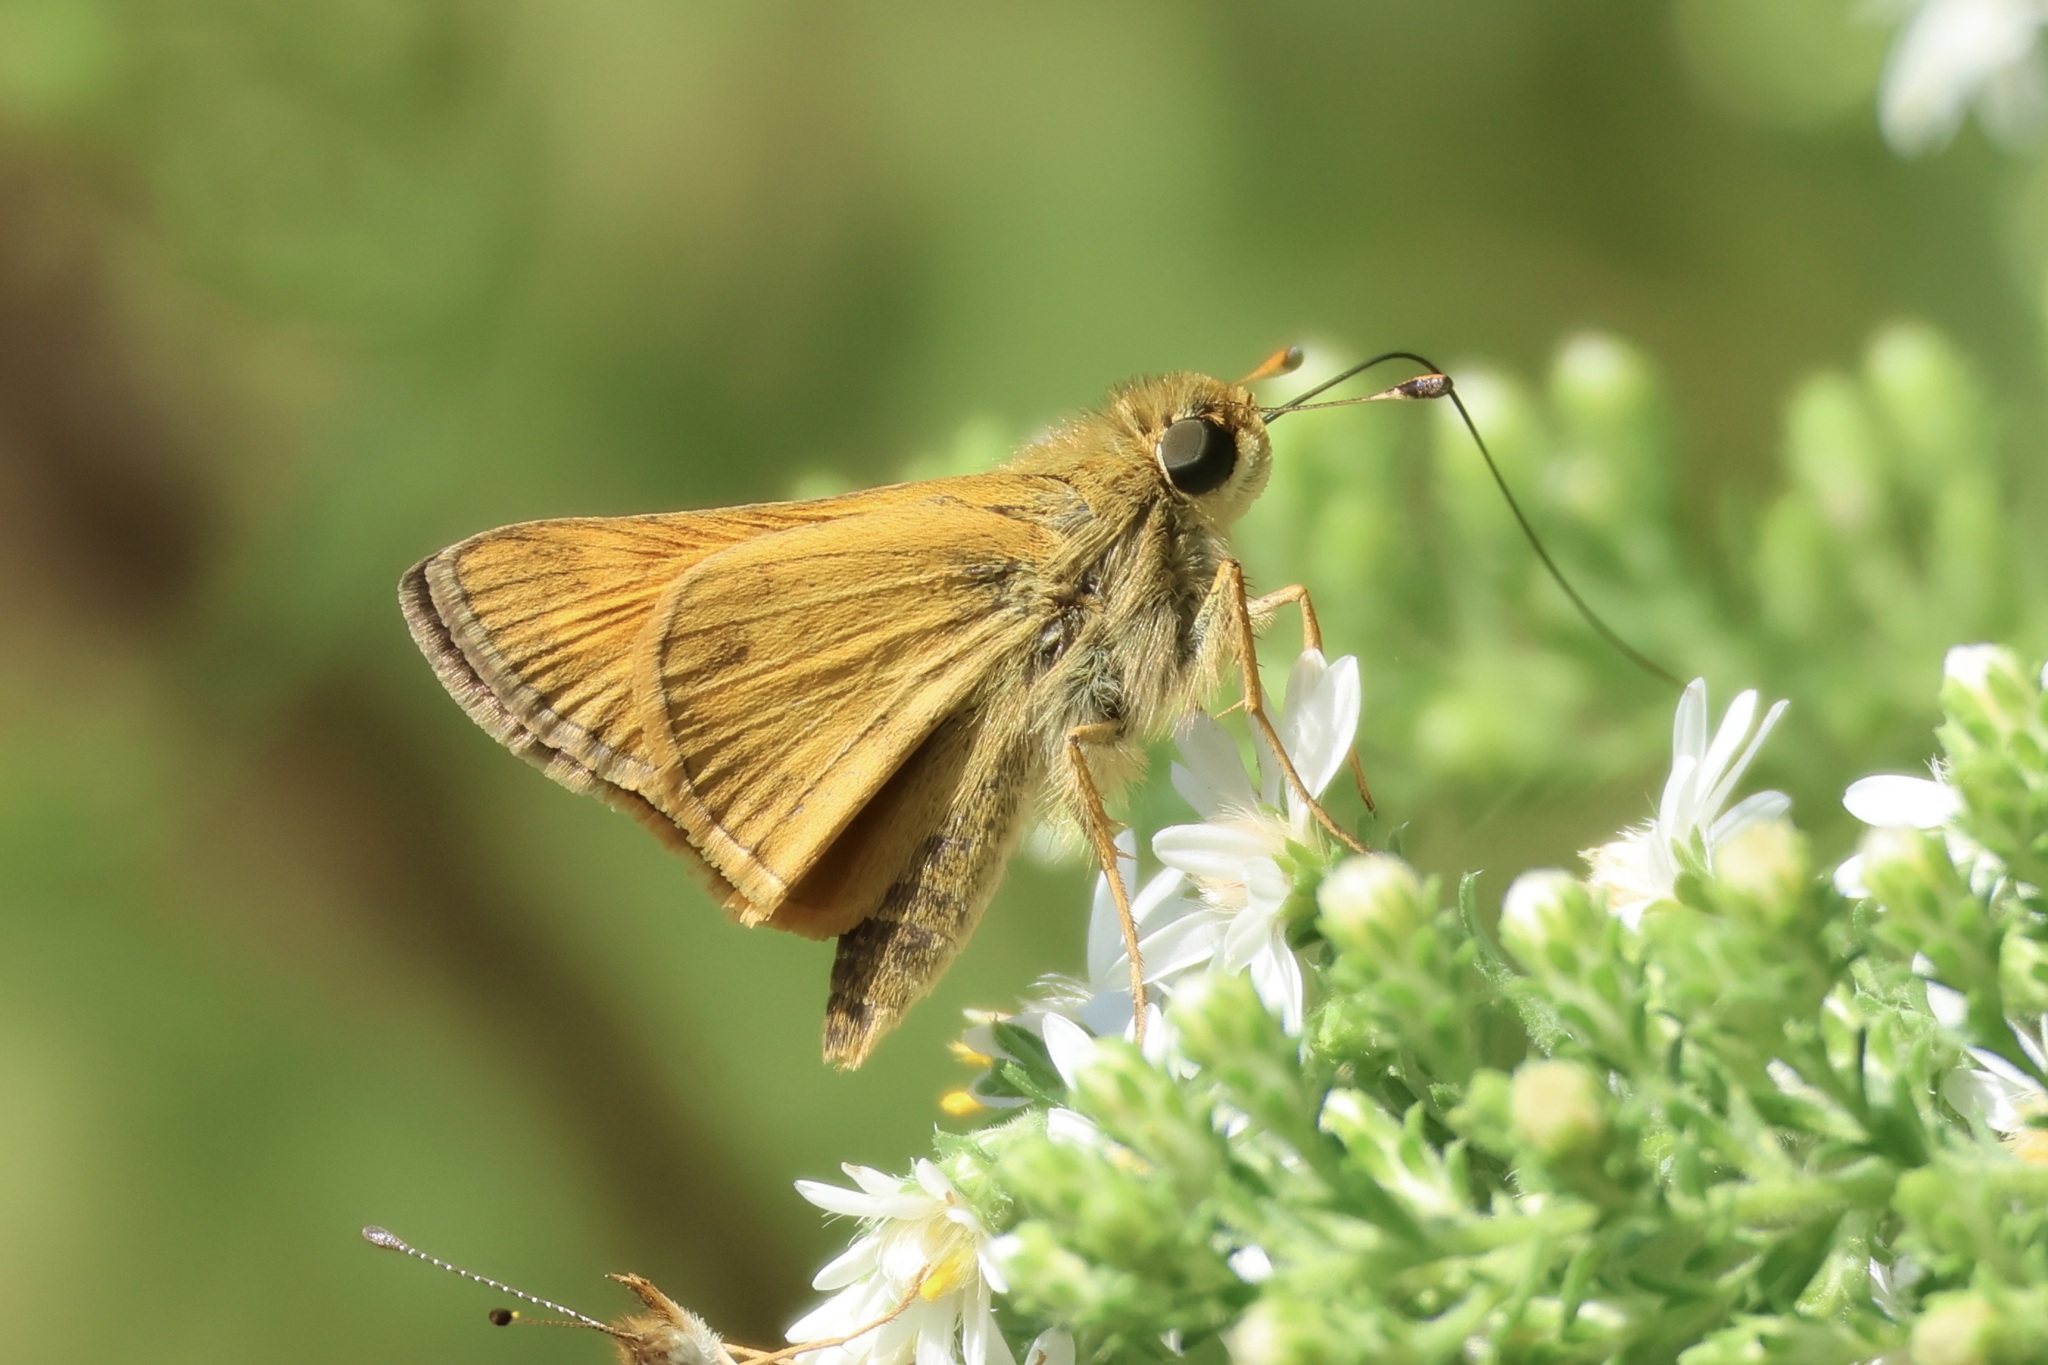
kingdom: Animalia
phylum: Arthropoda
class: Insecta
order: Lepidoptera
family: Hesperiidae
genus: Atalopedes
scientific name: Atalopedes
